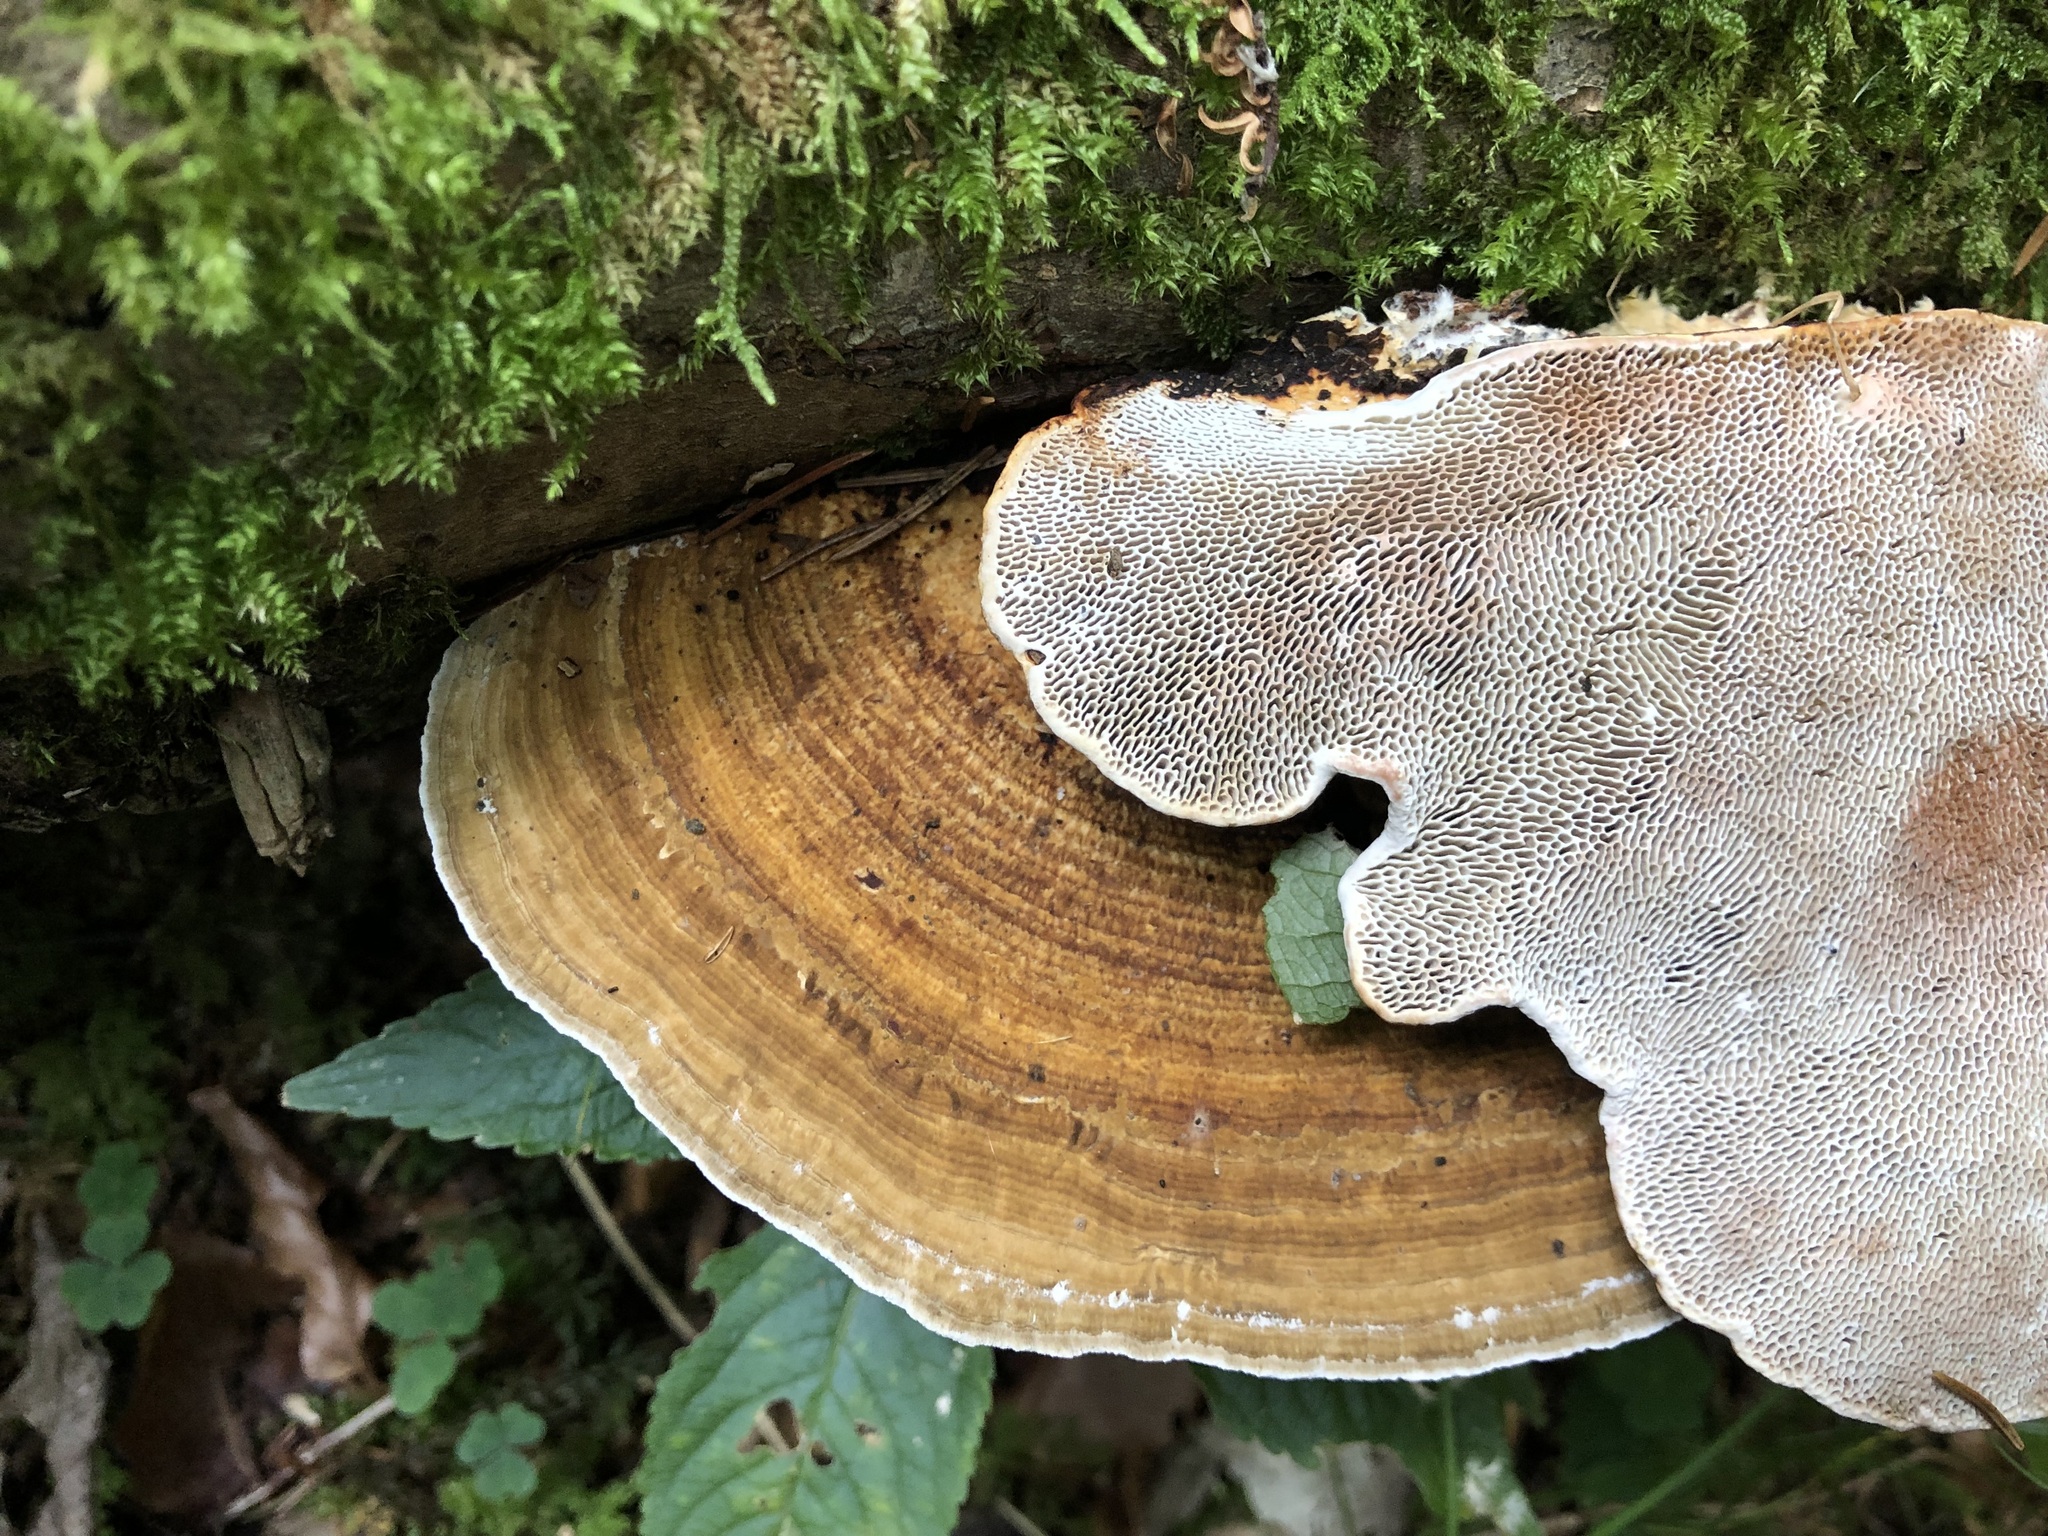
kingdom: Fungi
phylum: Basidiomycota
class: Agaricomycetes
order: Polyporales
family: Polyporaceae
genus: Daedaleopsis
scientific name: Daedaleopsis confragosa
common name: Blushing bracket
